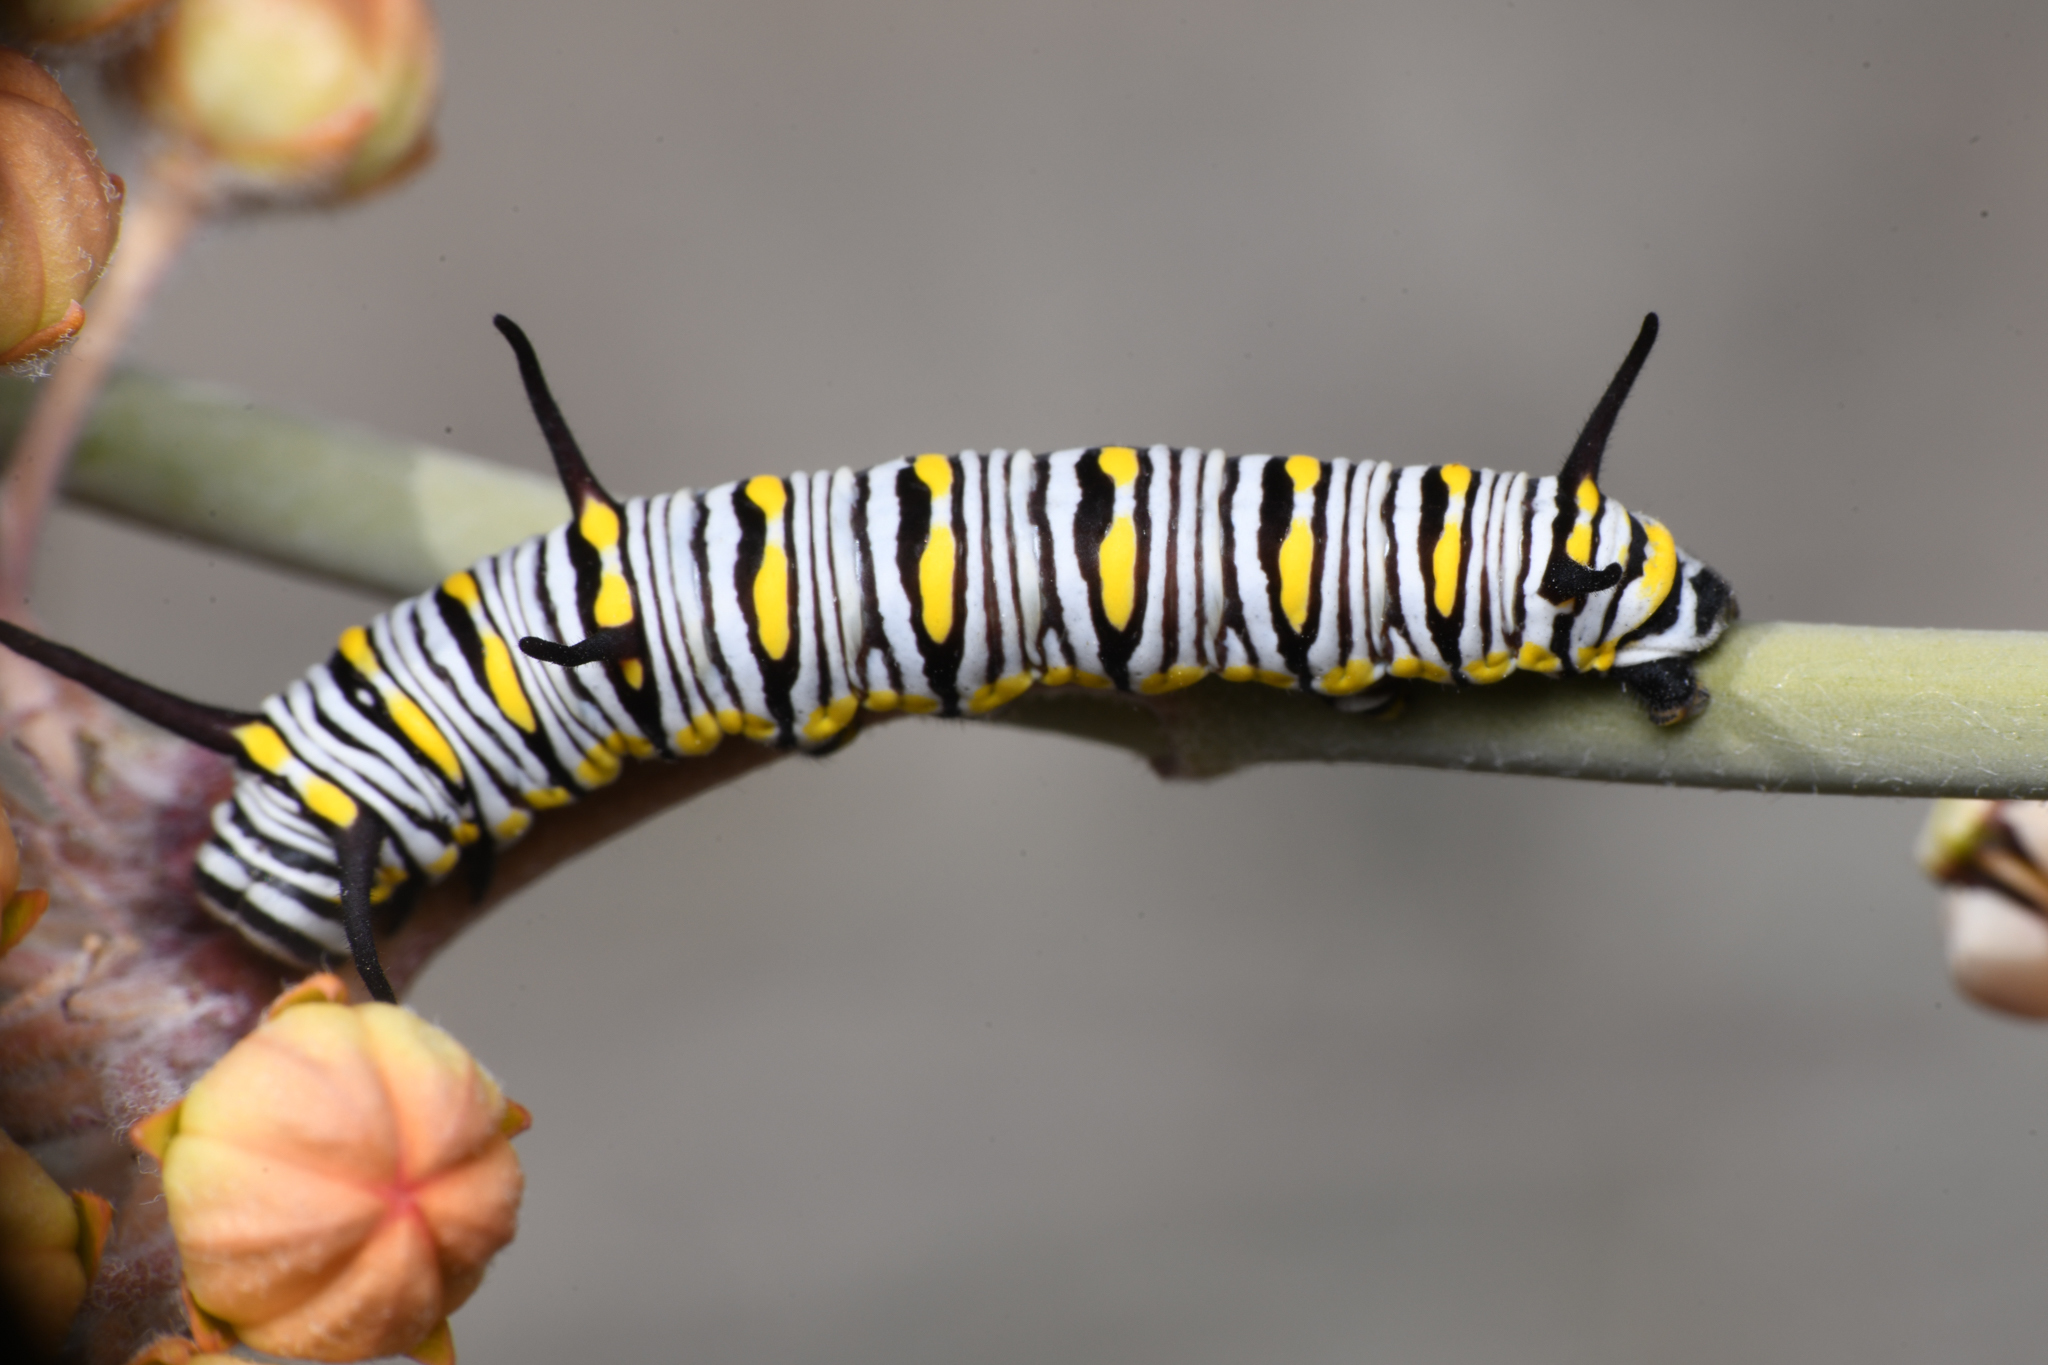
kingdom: Animalia
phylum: Arthropoda
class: Insecta
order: Lepidoptera
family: Nymphalidae
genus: Danaus
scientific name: Danaus gilippus
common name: Queen
